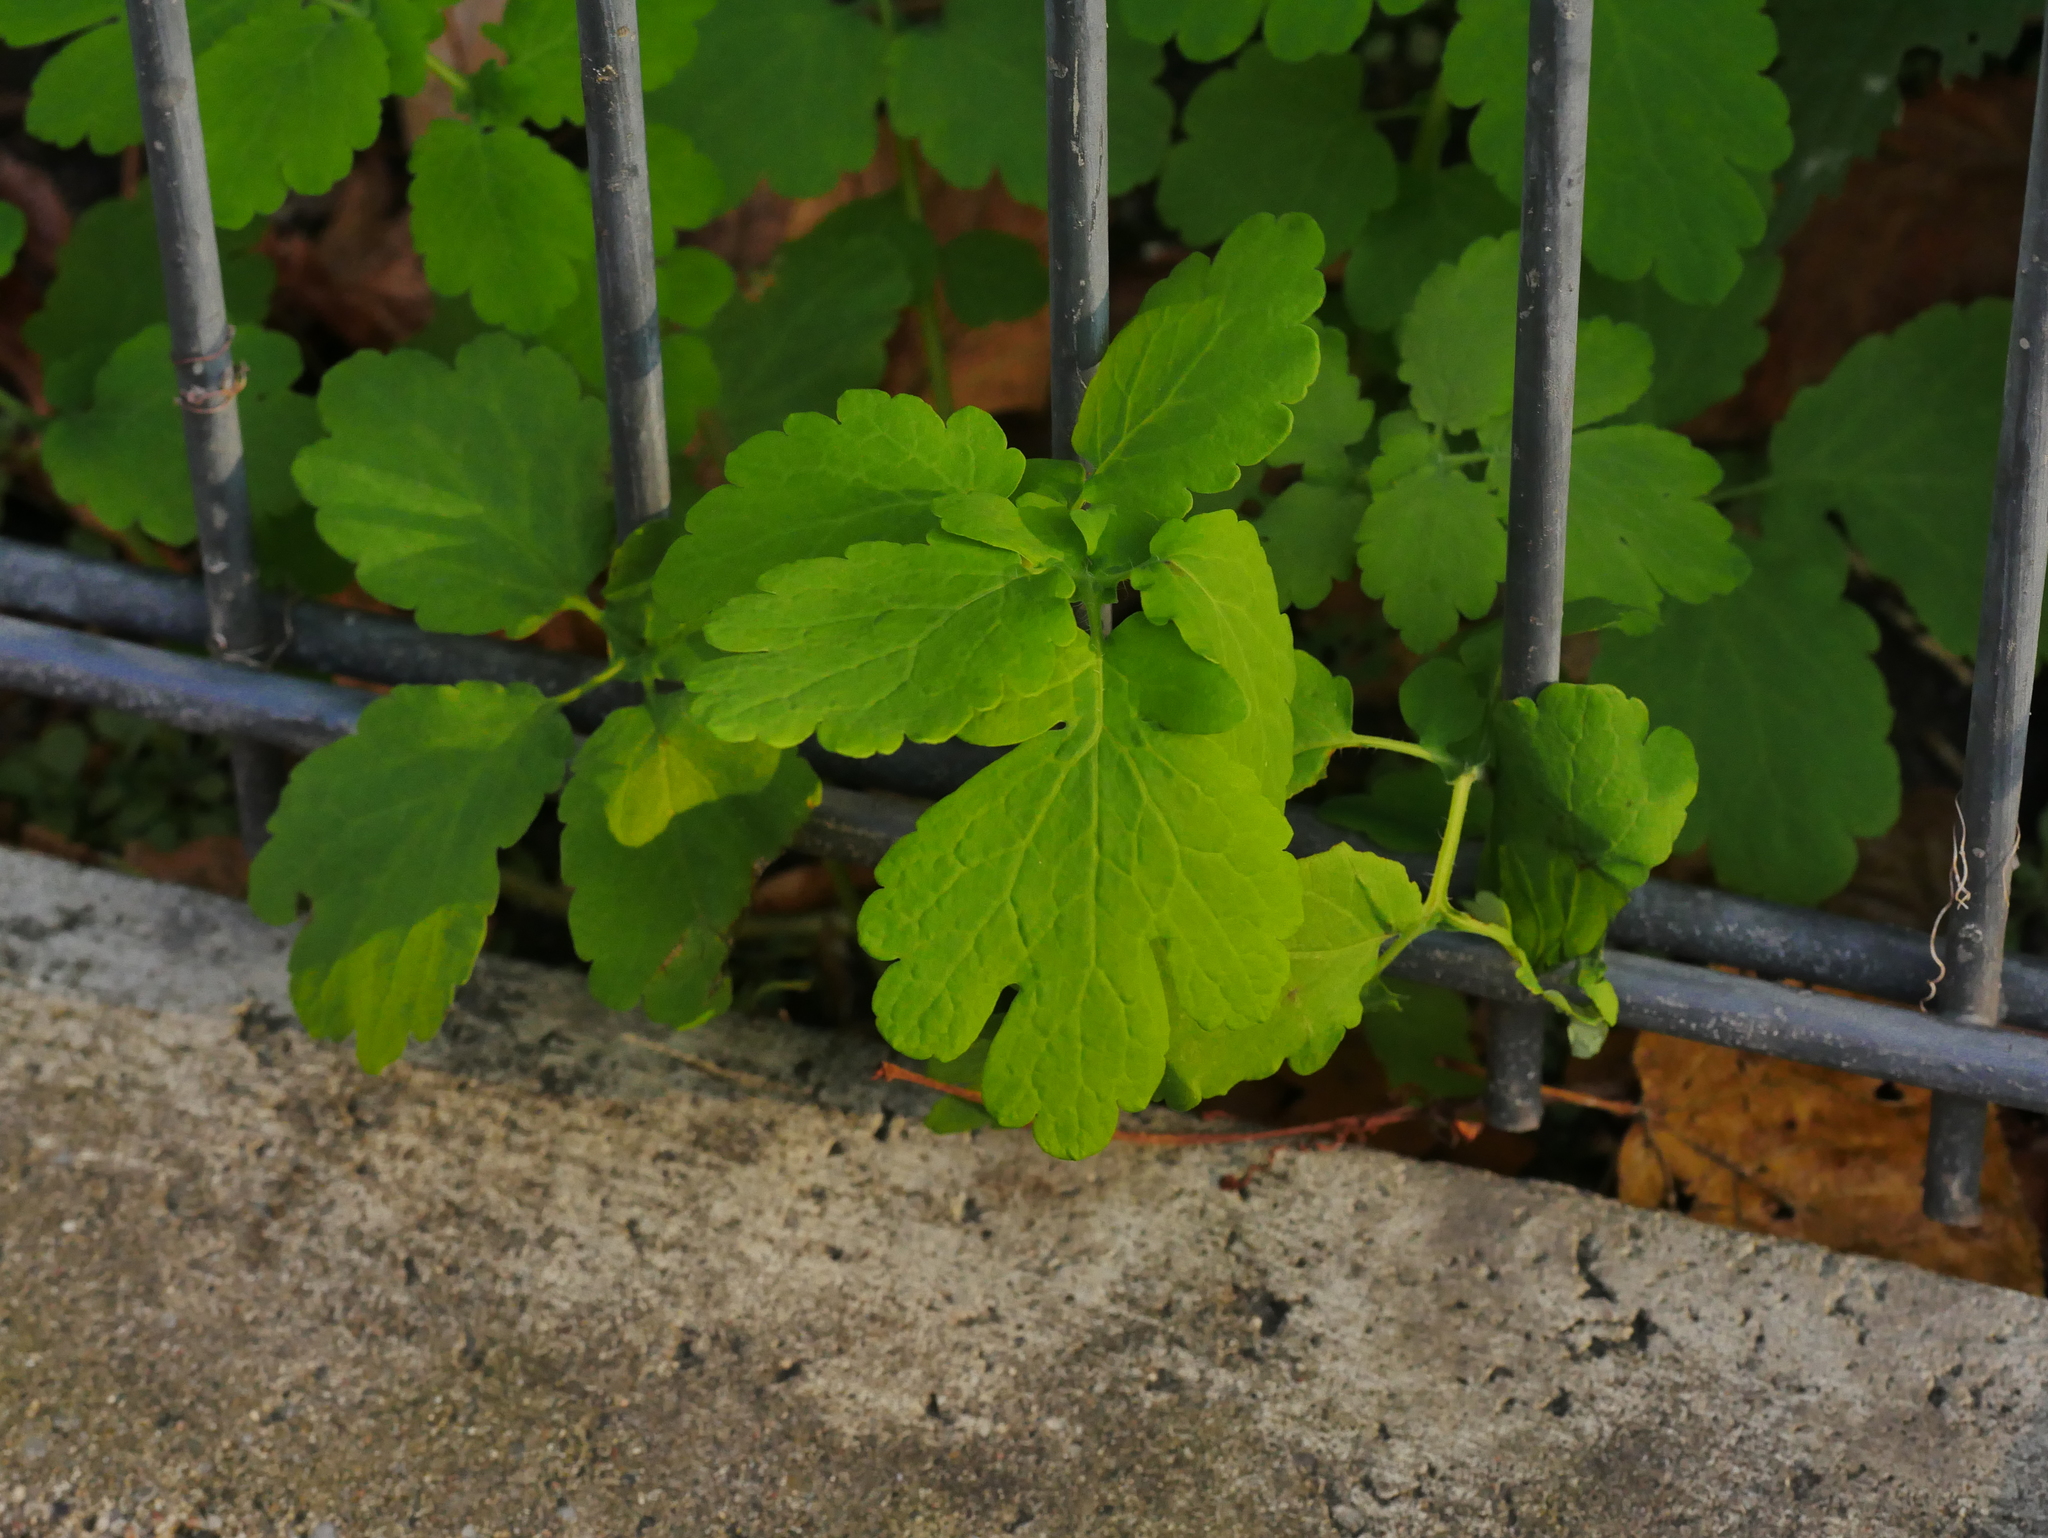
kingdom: Plantae
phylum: Tracheophyta
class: Magnoliopsida
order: Ranunculales
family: Papaveraceae
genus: Chelidonium
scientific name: Chelidonium majus
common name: Greater celandine
